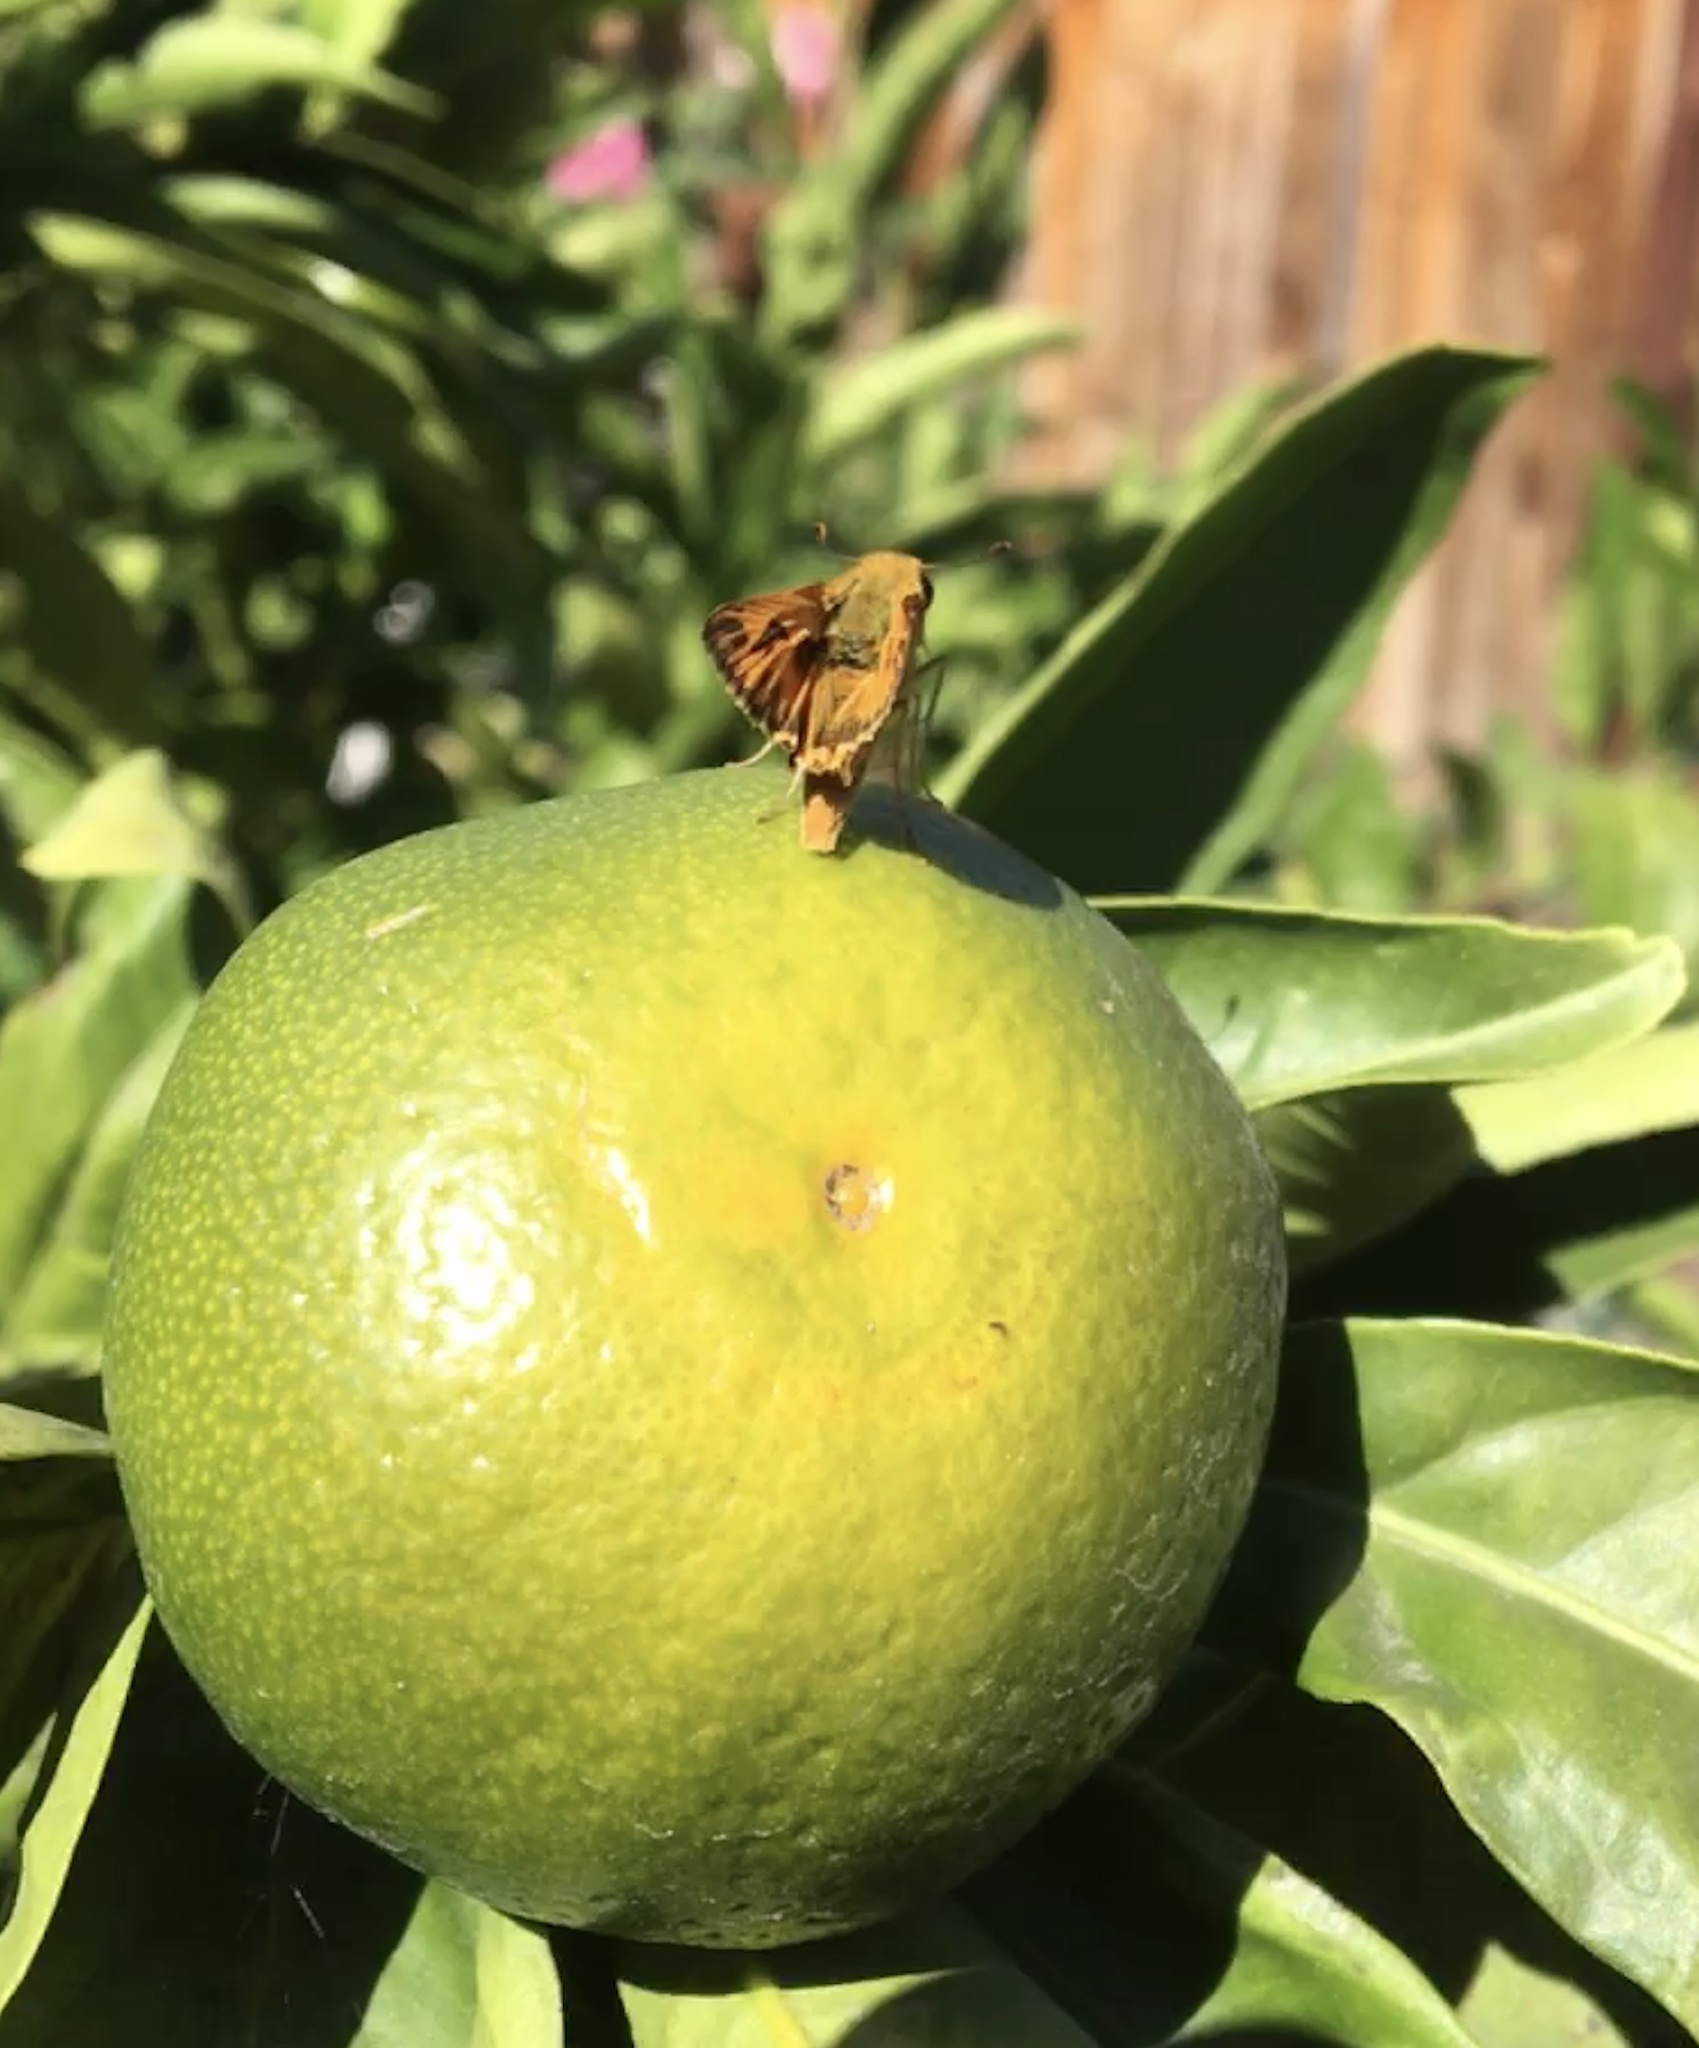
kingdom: Animalia
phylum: Arthropoda
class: Insecta
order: Lepidoptera
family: Hesperiidae
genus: Hylephila
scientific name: Hylephila phyleus
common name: Fiery skipper
